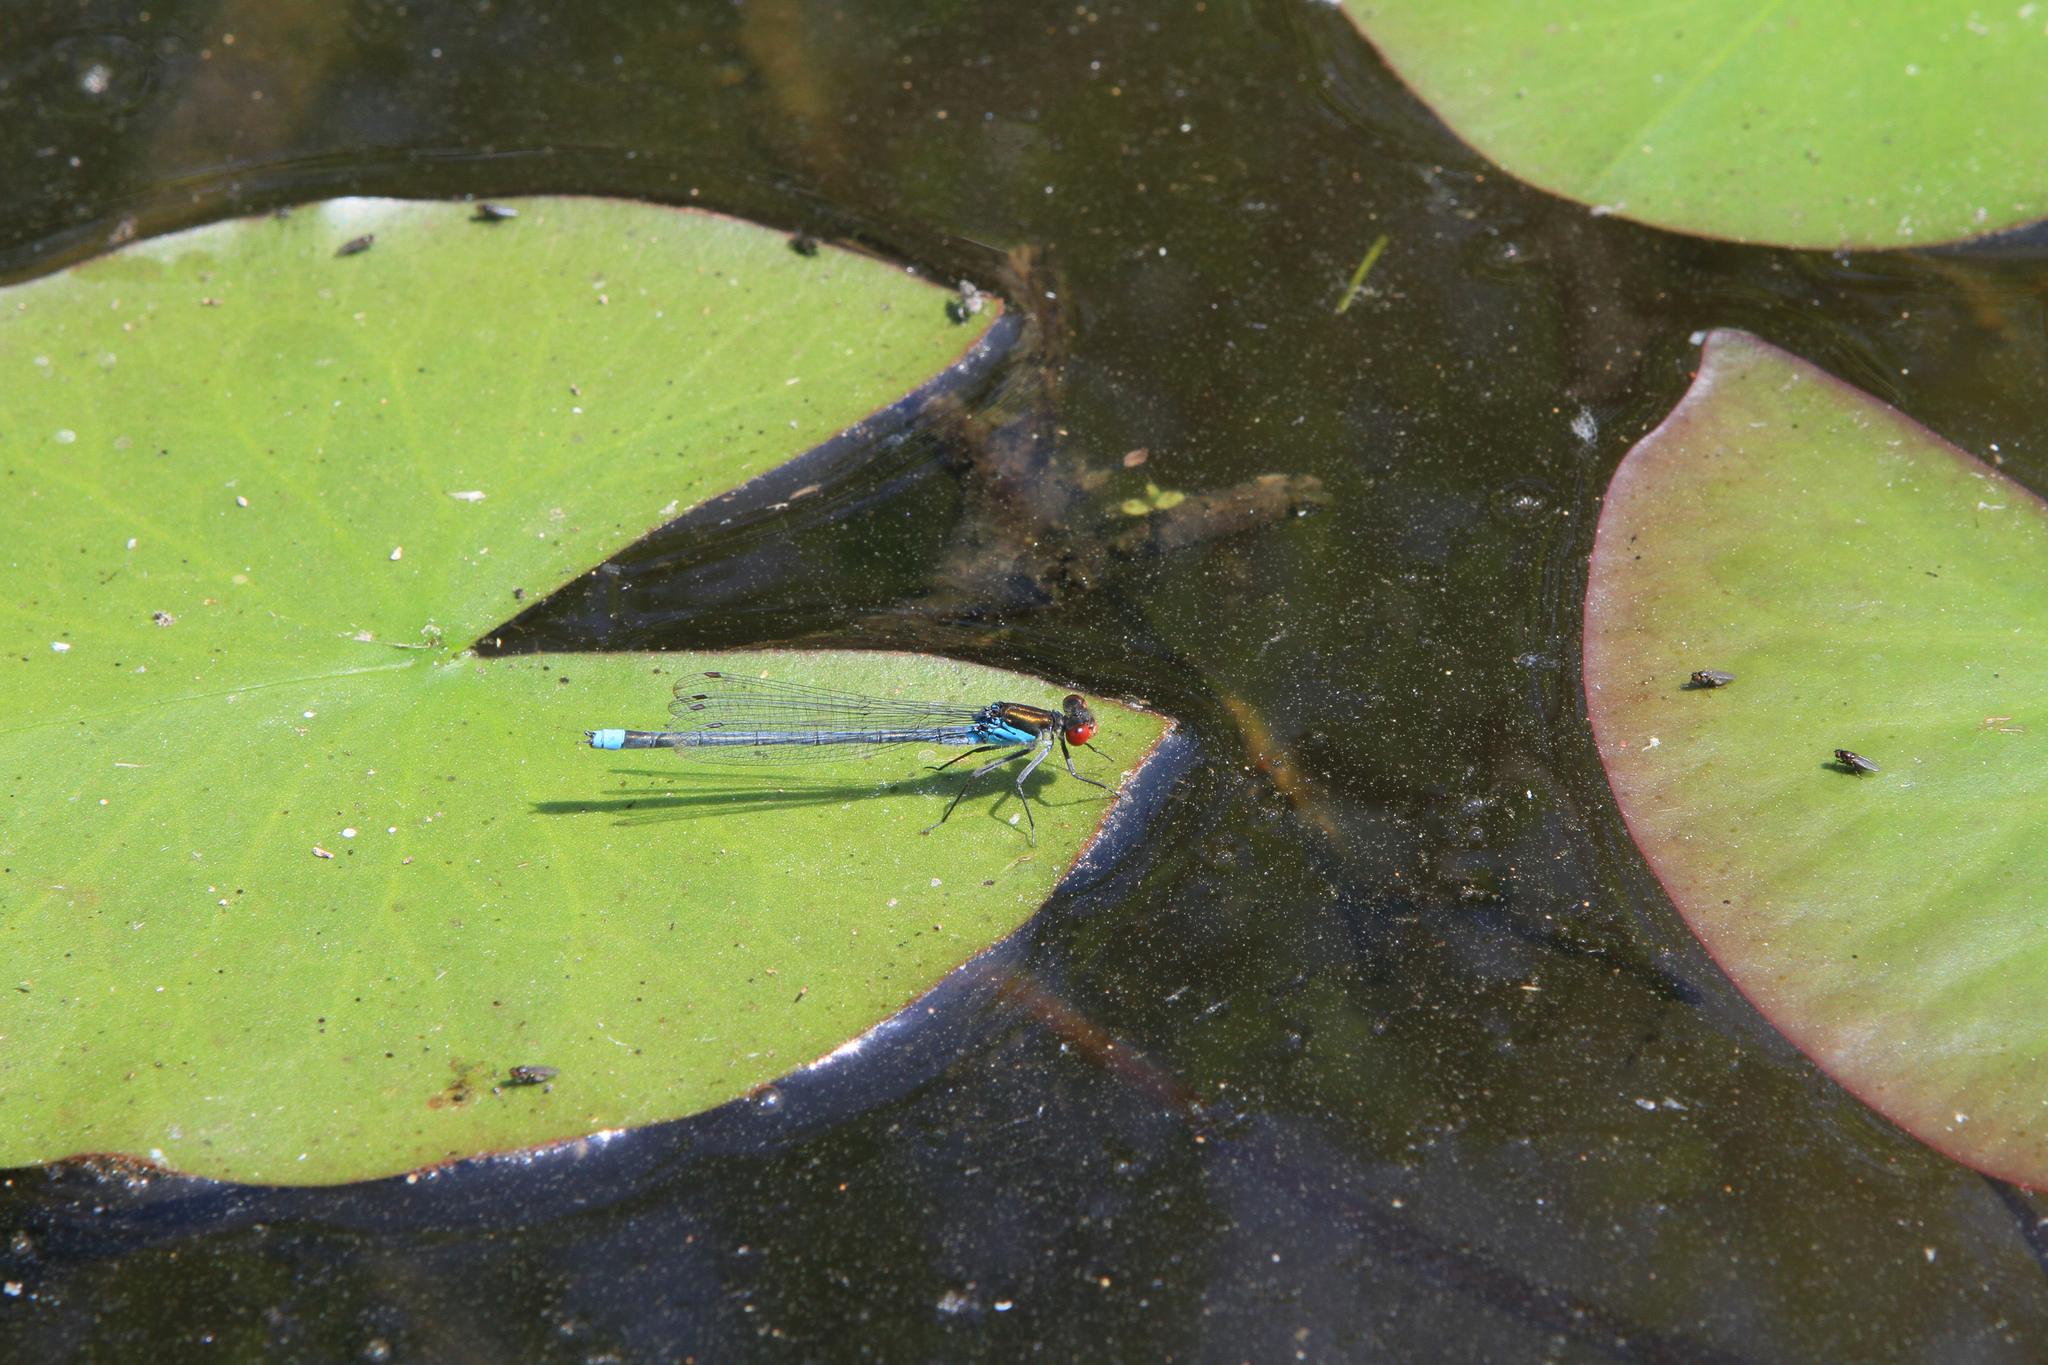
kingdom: Animalia
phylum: Arthropoda
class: Insecta
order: Odonata
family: Coenagrionidae
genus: Erythromma
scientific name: Erythromma najas
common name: Red-eyed damselfly
